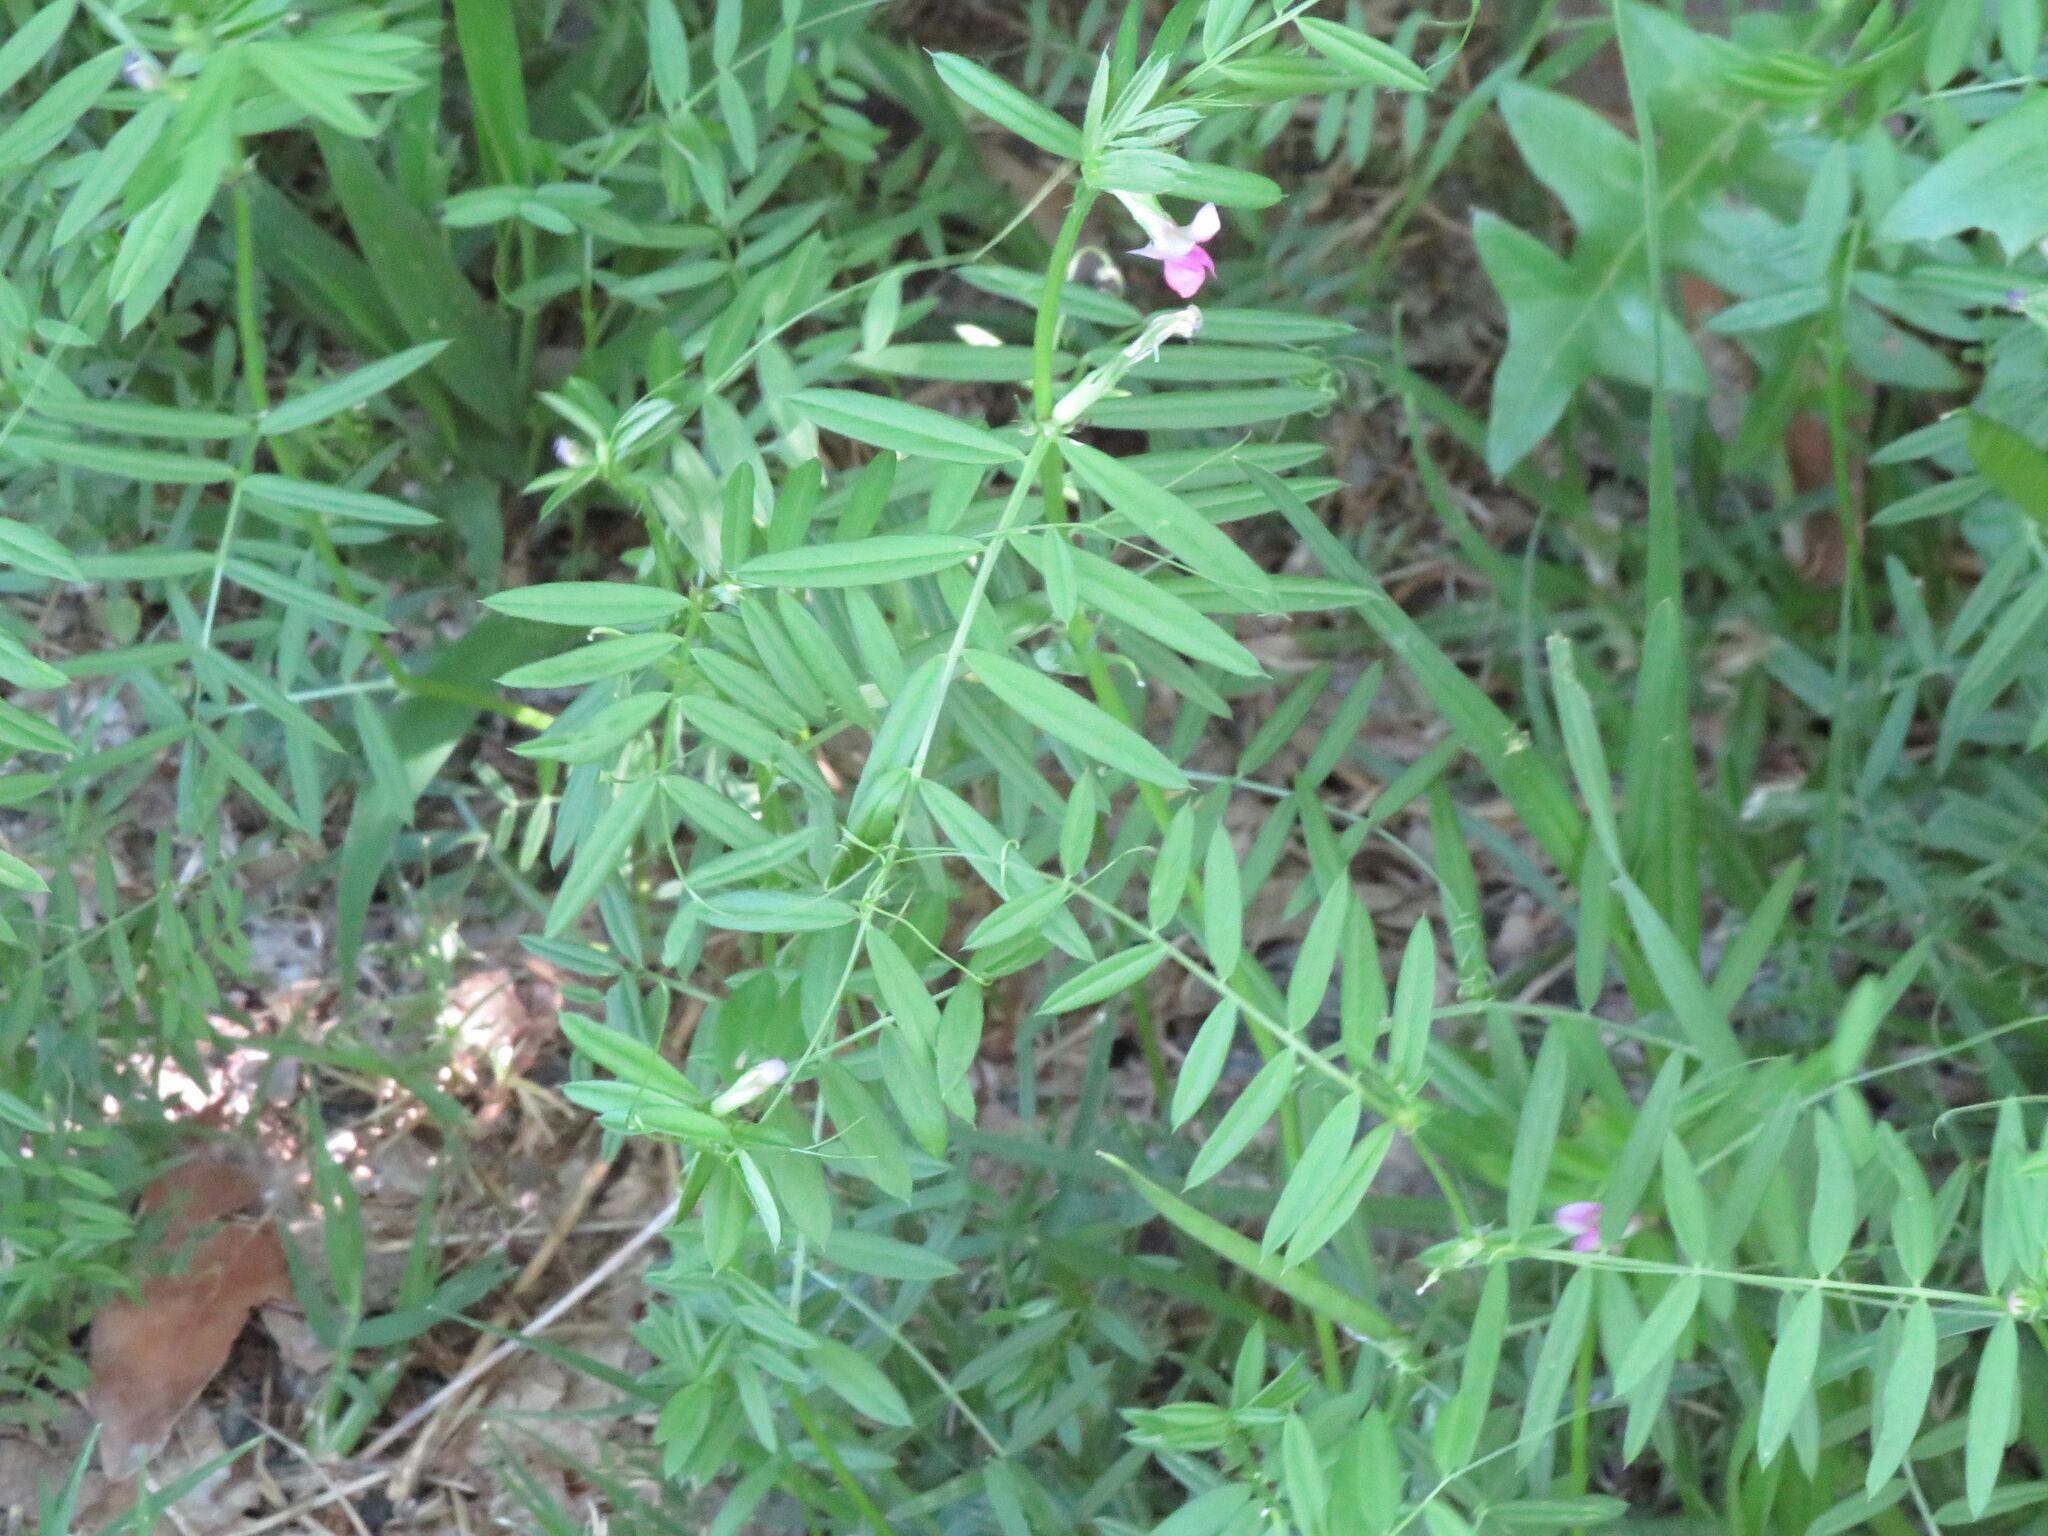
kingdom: Plantae
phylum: Tracheophyta
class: Magnoliopsida
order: Fabales
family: Fabaceae
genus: Vicia
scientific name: Vicia sativa
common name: Garden vetch
